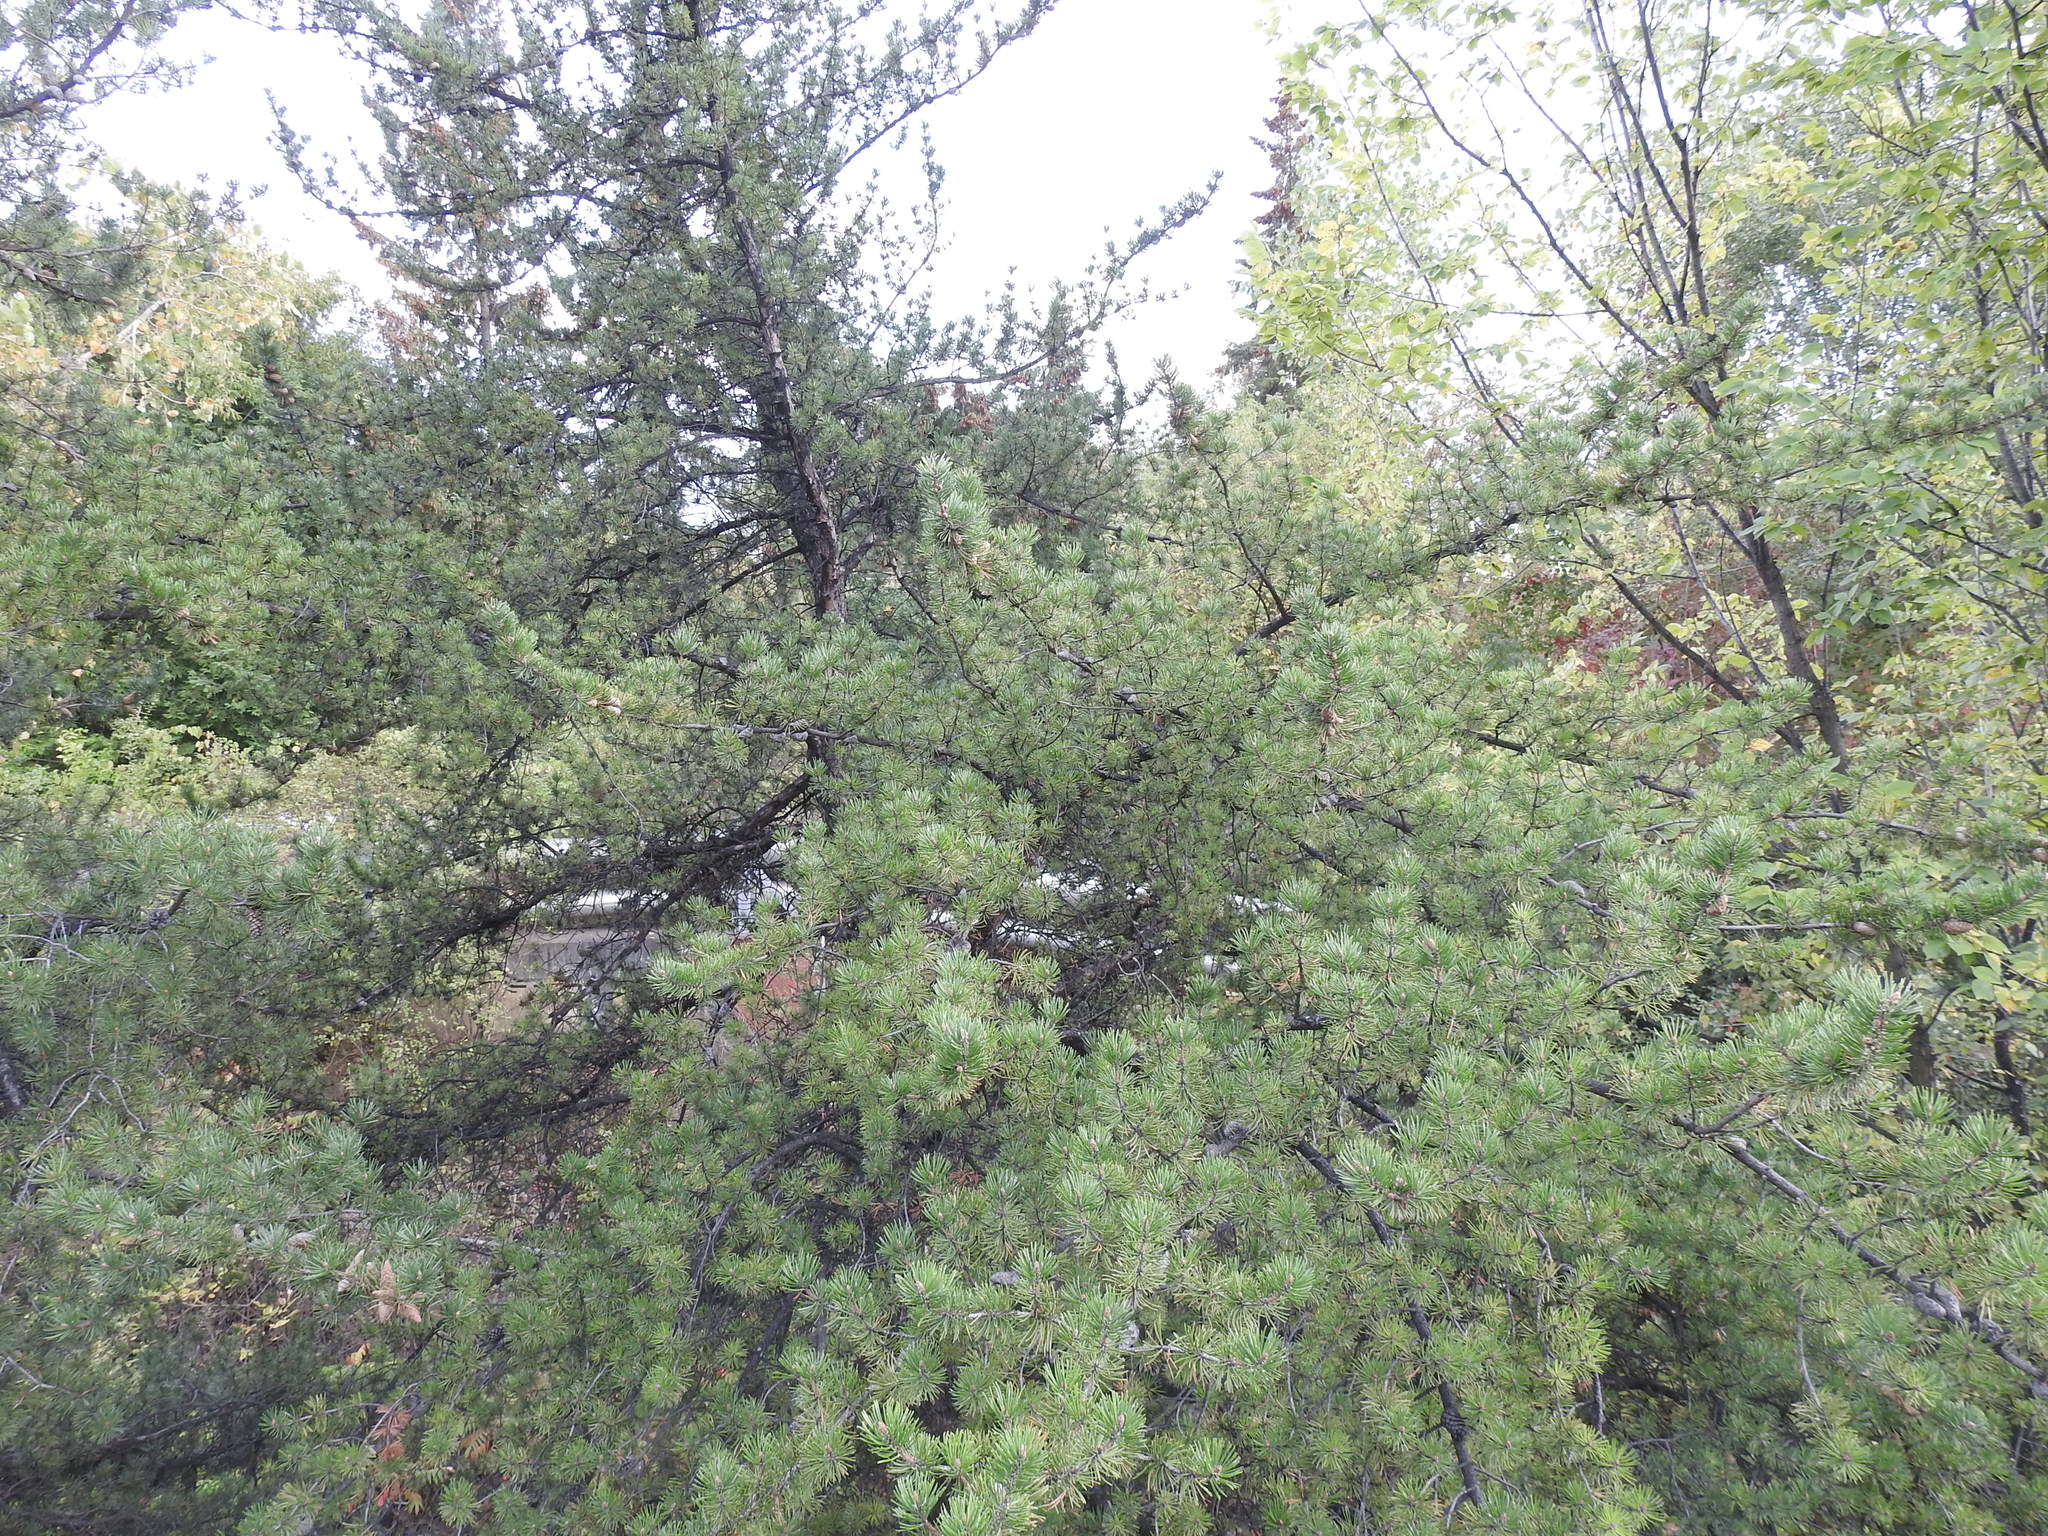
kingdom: Plantae
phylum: Tracheophyta
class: Pinopsida
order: Pinales
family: Pinaceae
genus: Pinus
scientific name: Pinus banksiana
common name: Jack pine
